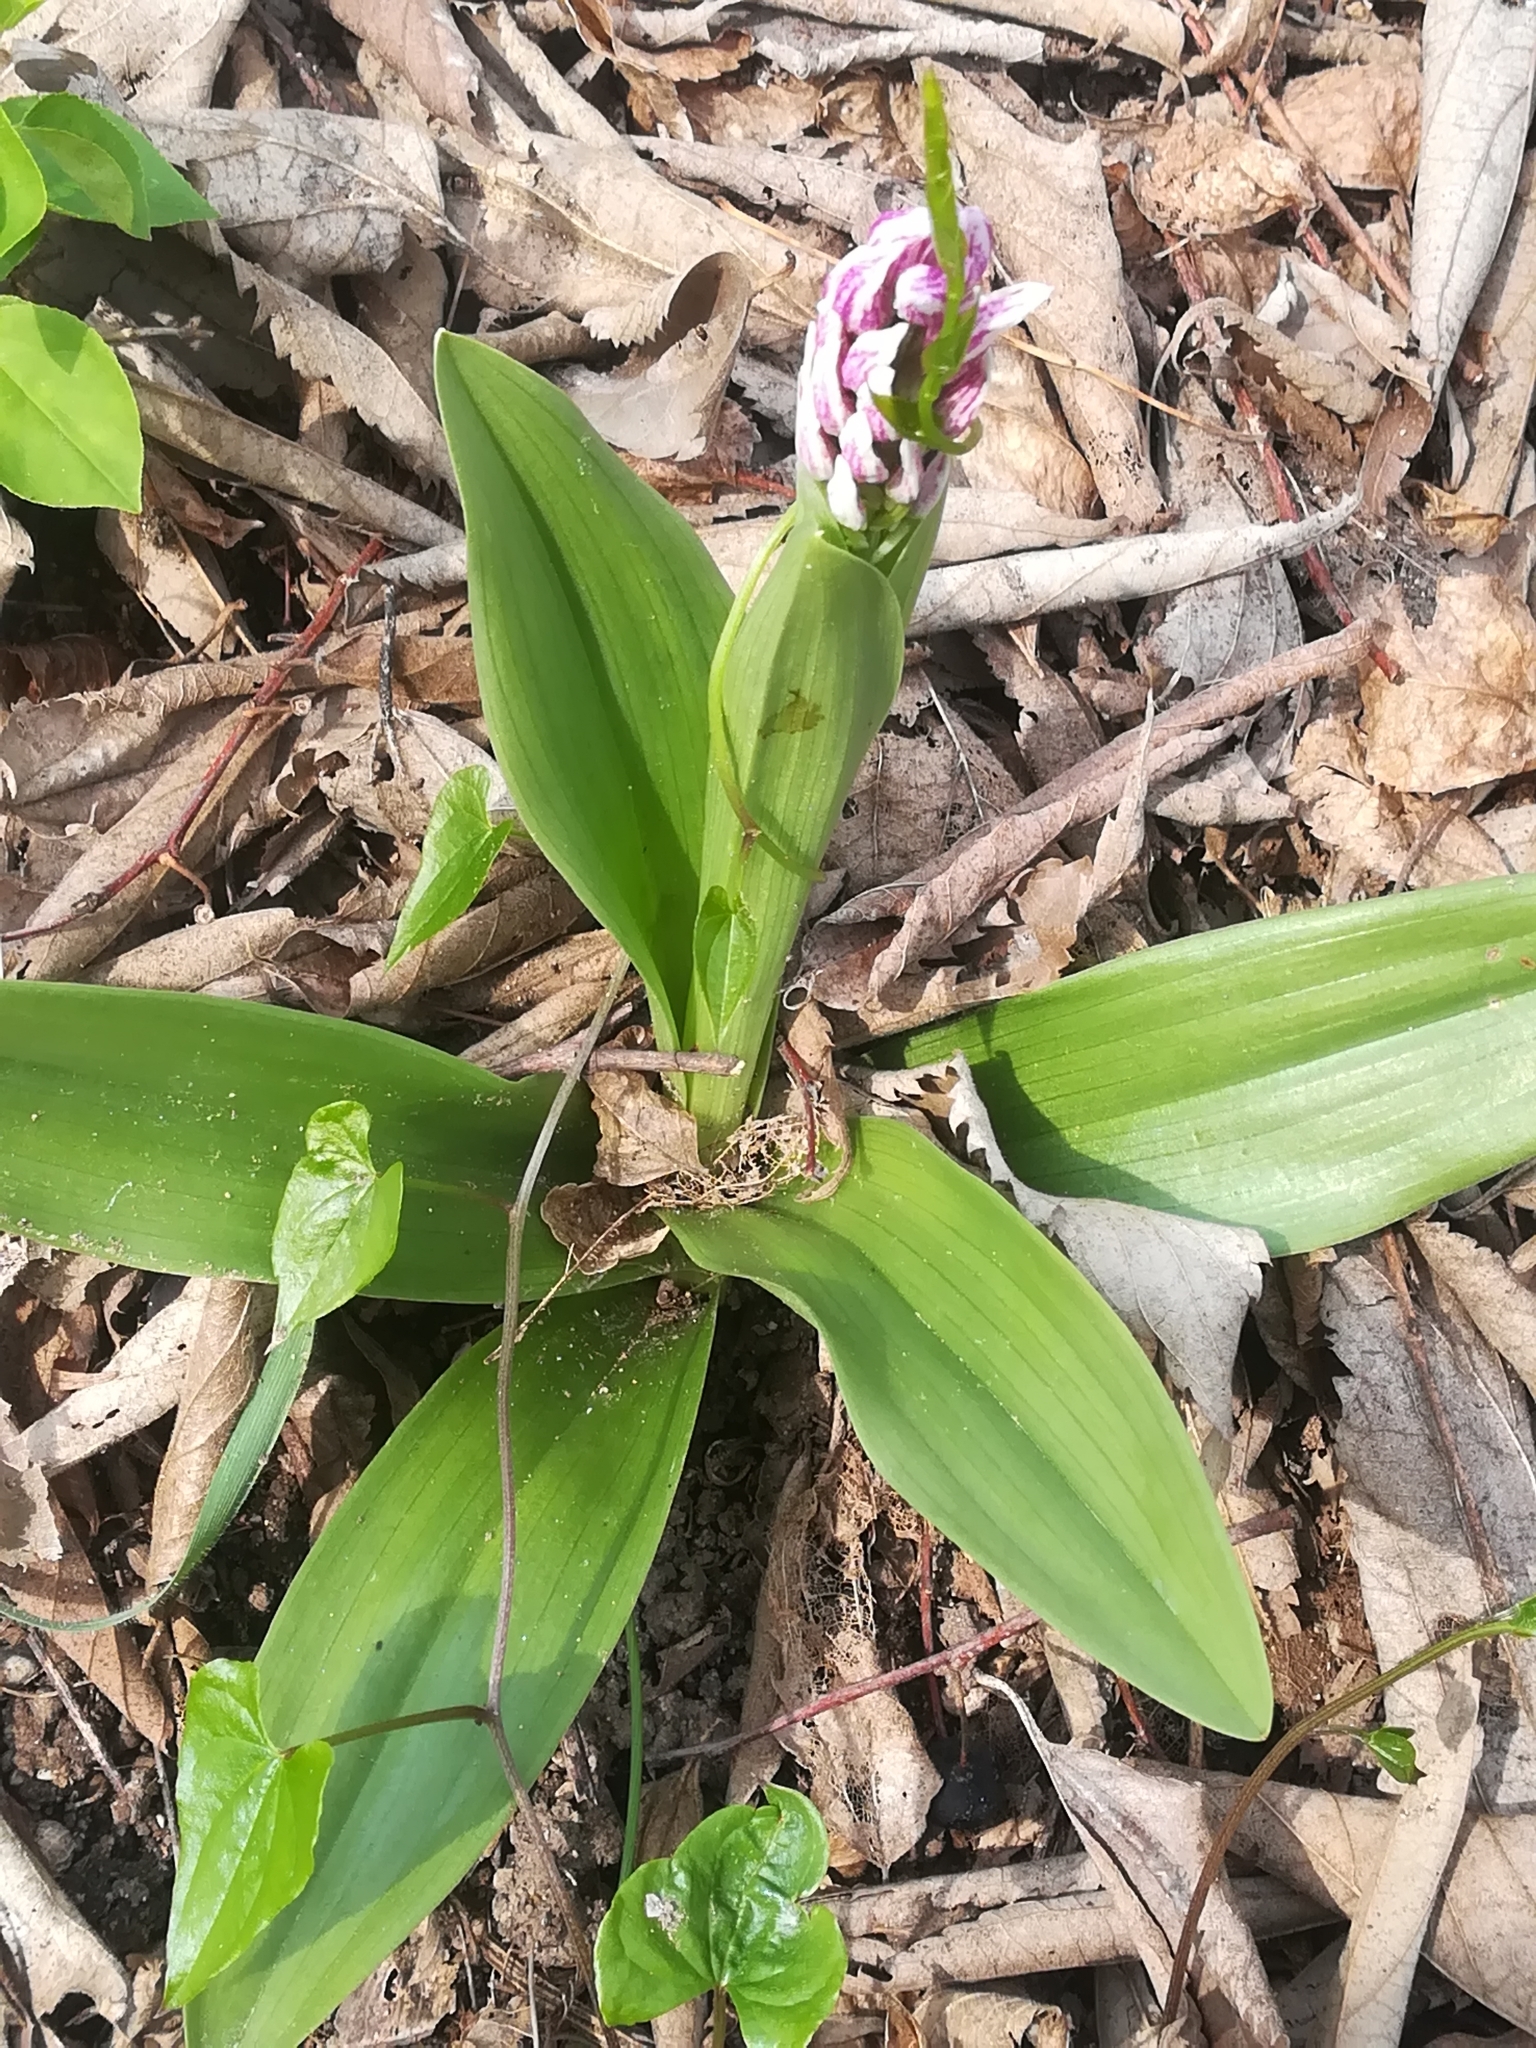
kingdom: Plantae
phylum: Tracheophyta
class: Liliopsida
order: Asparagales
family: Orchidaceae
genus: Orchis
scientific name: Orchis simia
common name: Monkey orchid
